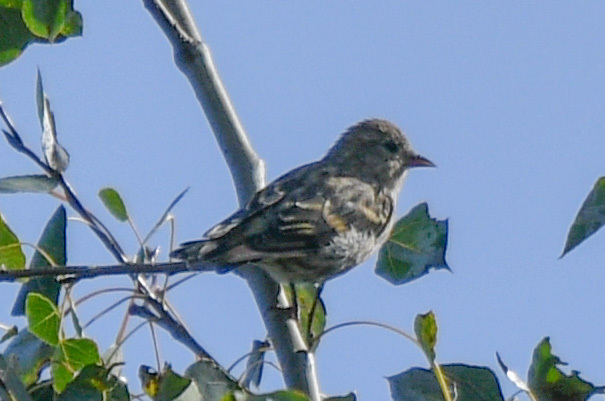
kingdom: Animalia
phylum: Chordata
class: Aves
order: Passeriformes
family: Fringillidae
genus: Spinus
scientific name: Spinus pinus
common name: Pine siskin
